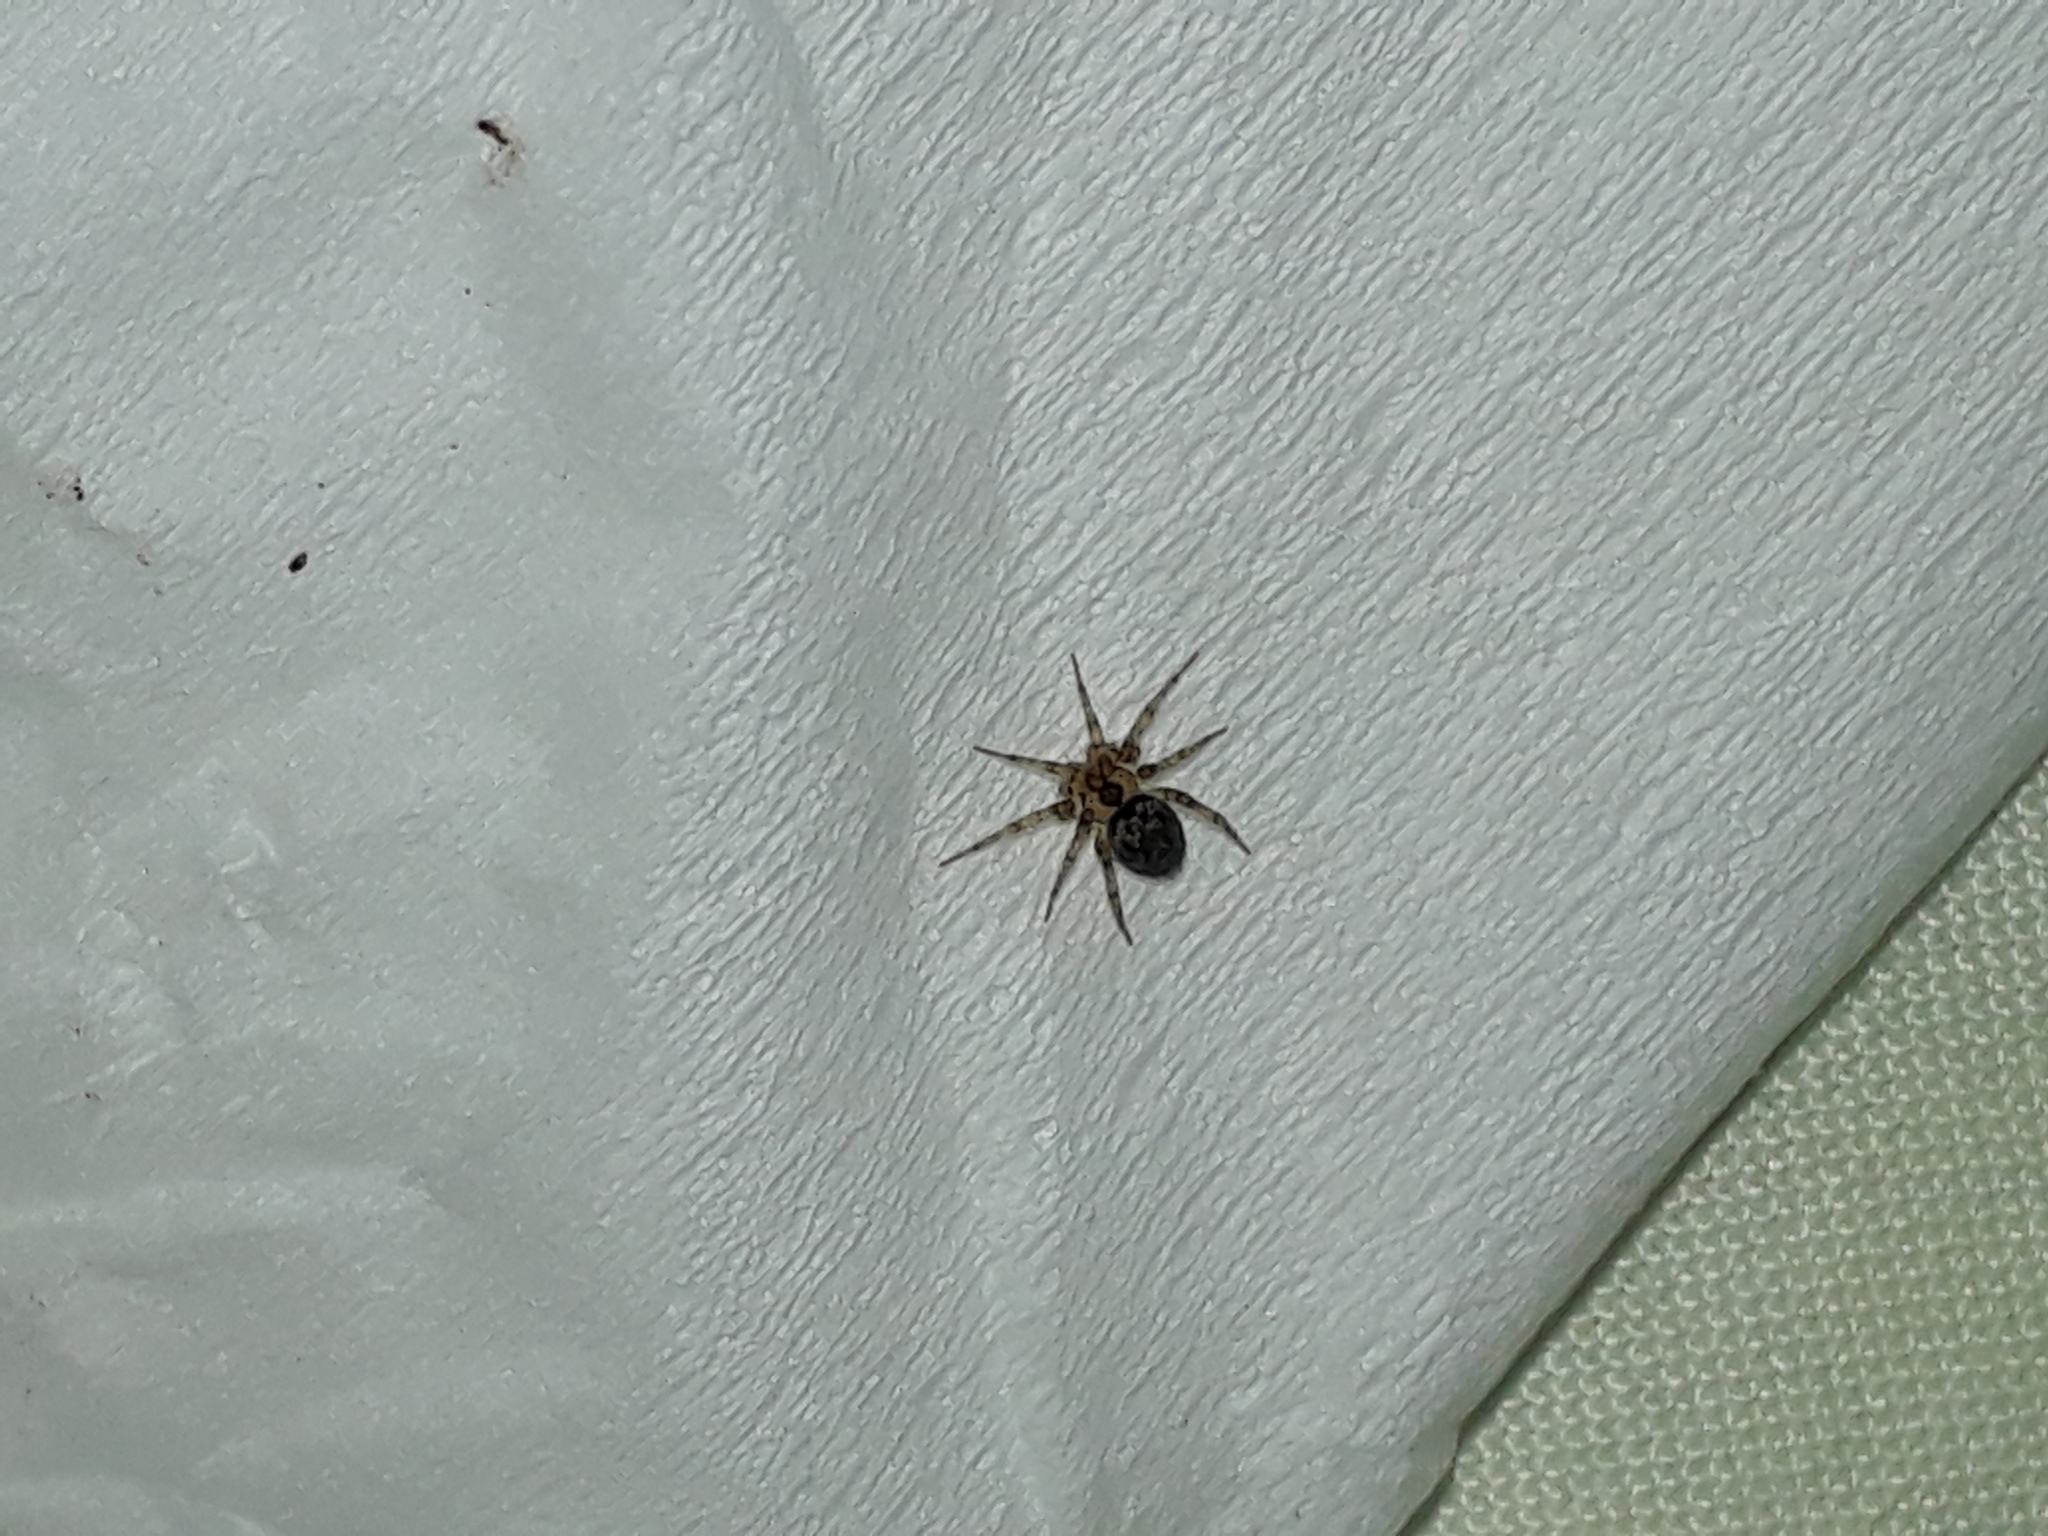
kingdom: Animalia
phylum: Arthropoda
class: Arachnida
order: Araneae
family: Oecobiidae
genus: Oecobius
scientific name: Oecobius navus
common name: Flatmesh weaver
